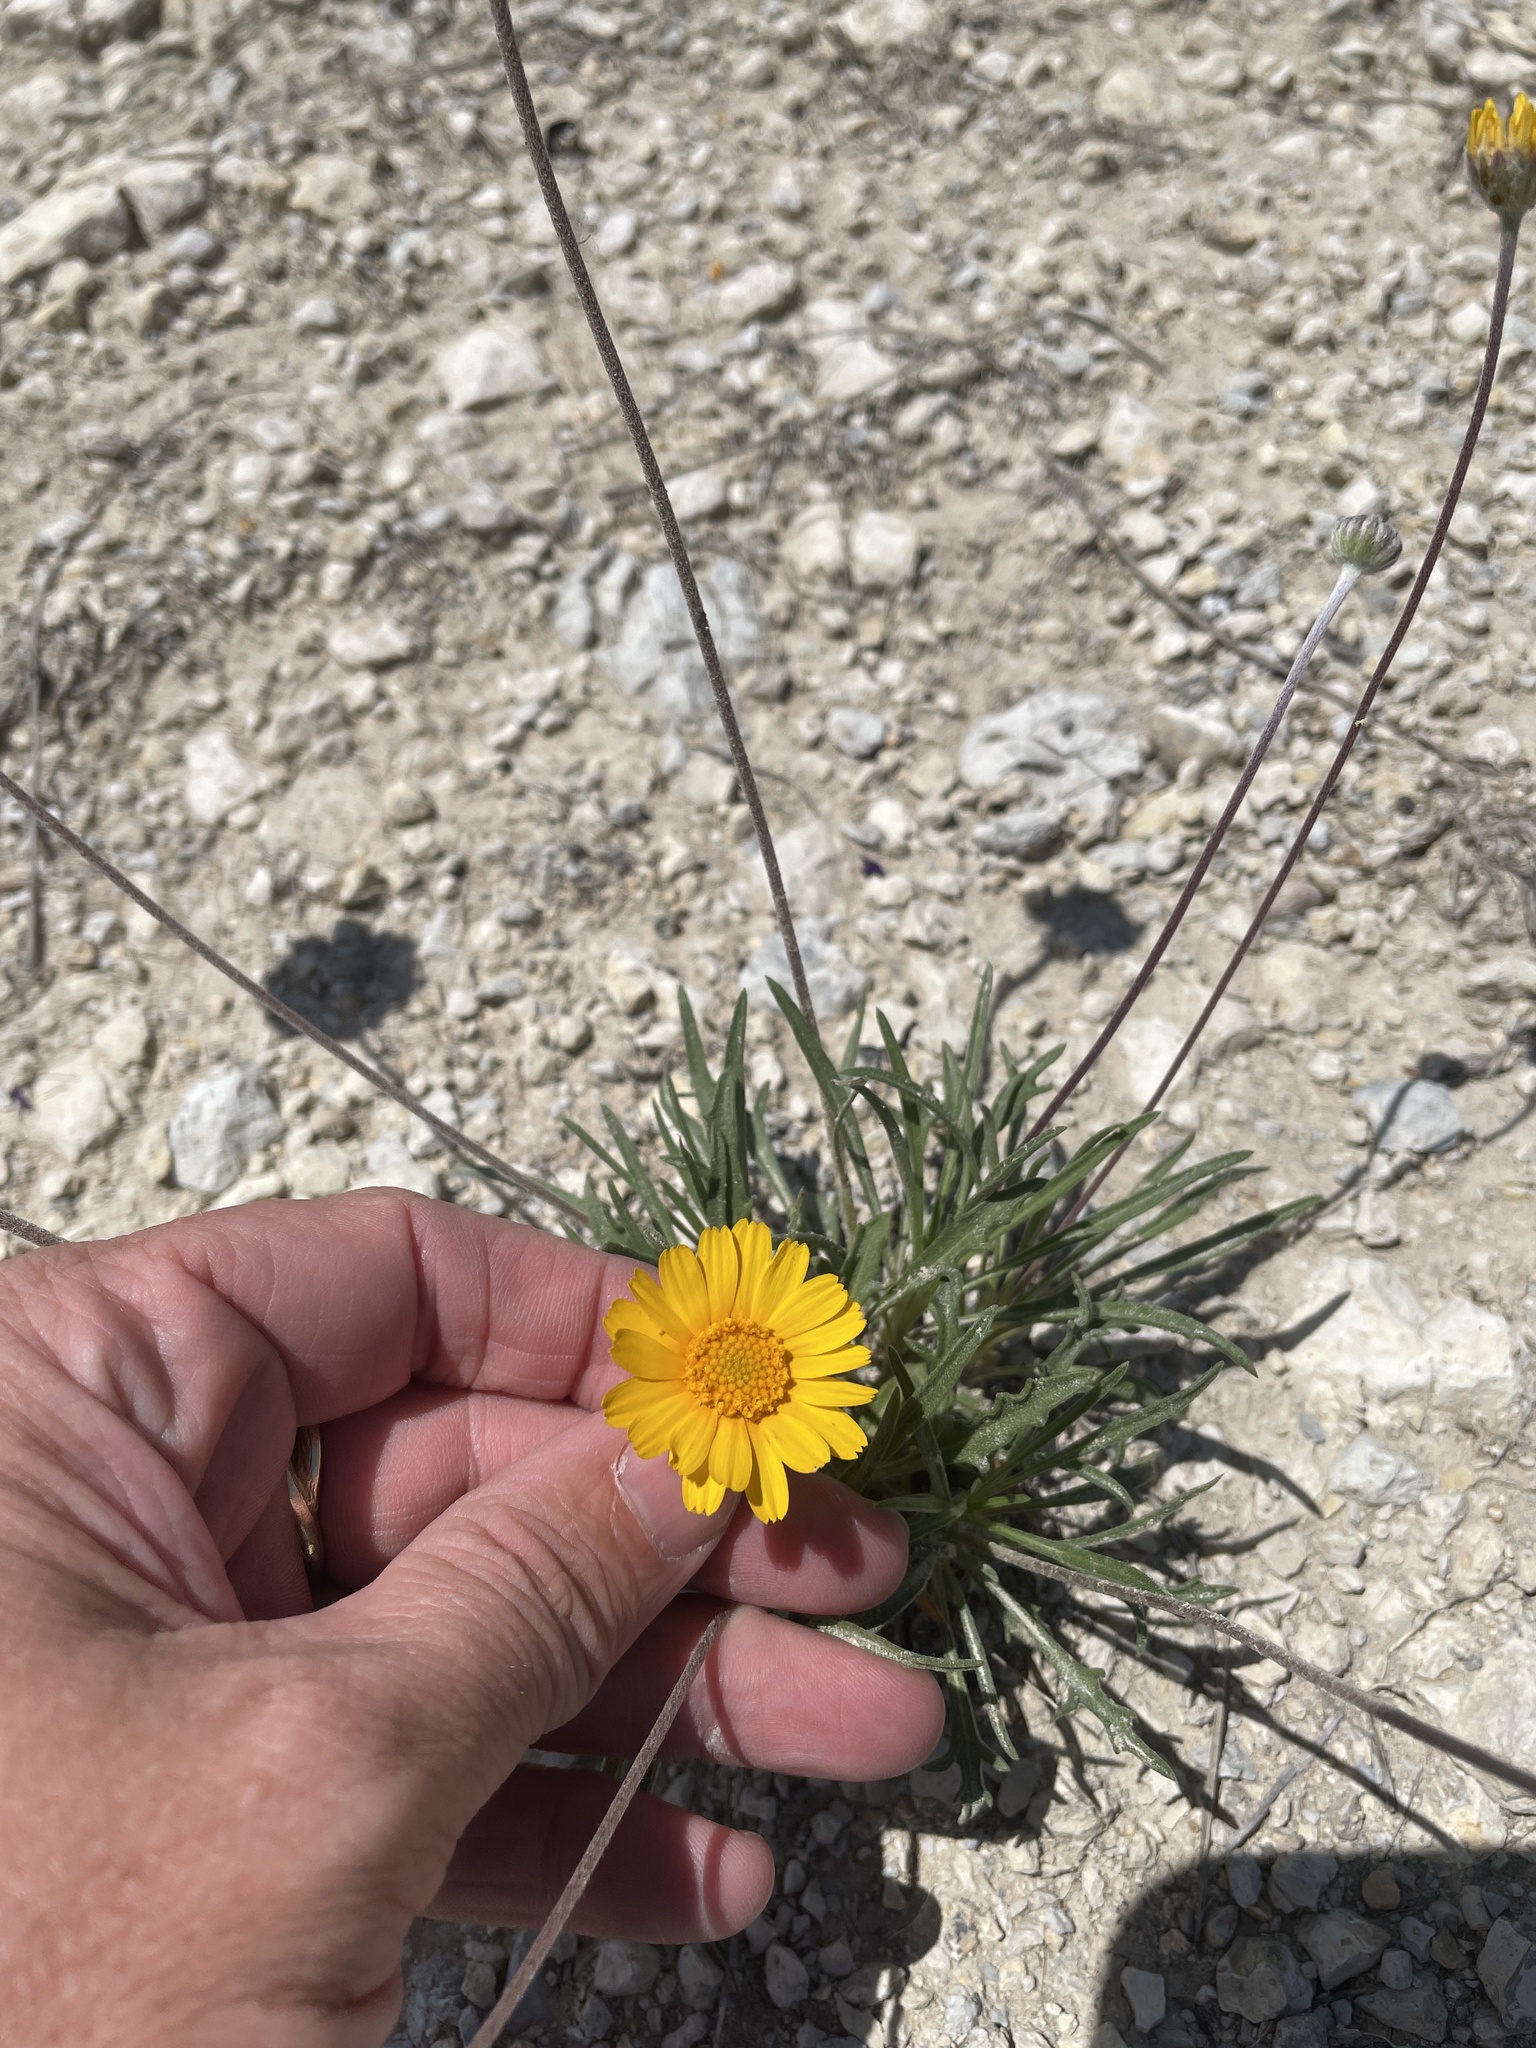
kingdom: Plantae
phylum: Tracheophyta
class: Magnoliopsida
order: Asterales
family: Asteraceae
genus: Tetraneuris
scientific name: Tetraneuris scaposa
